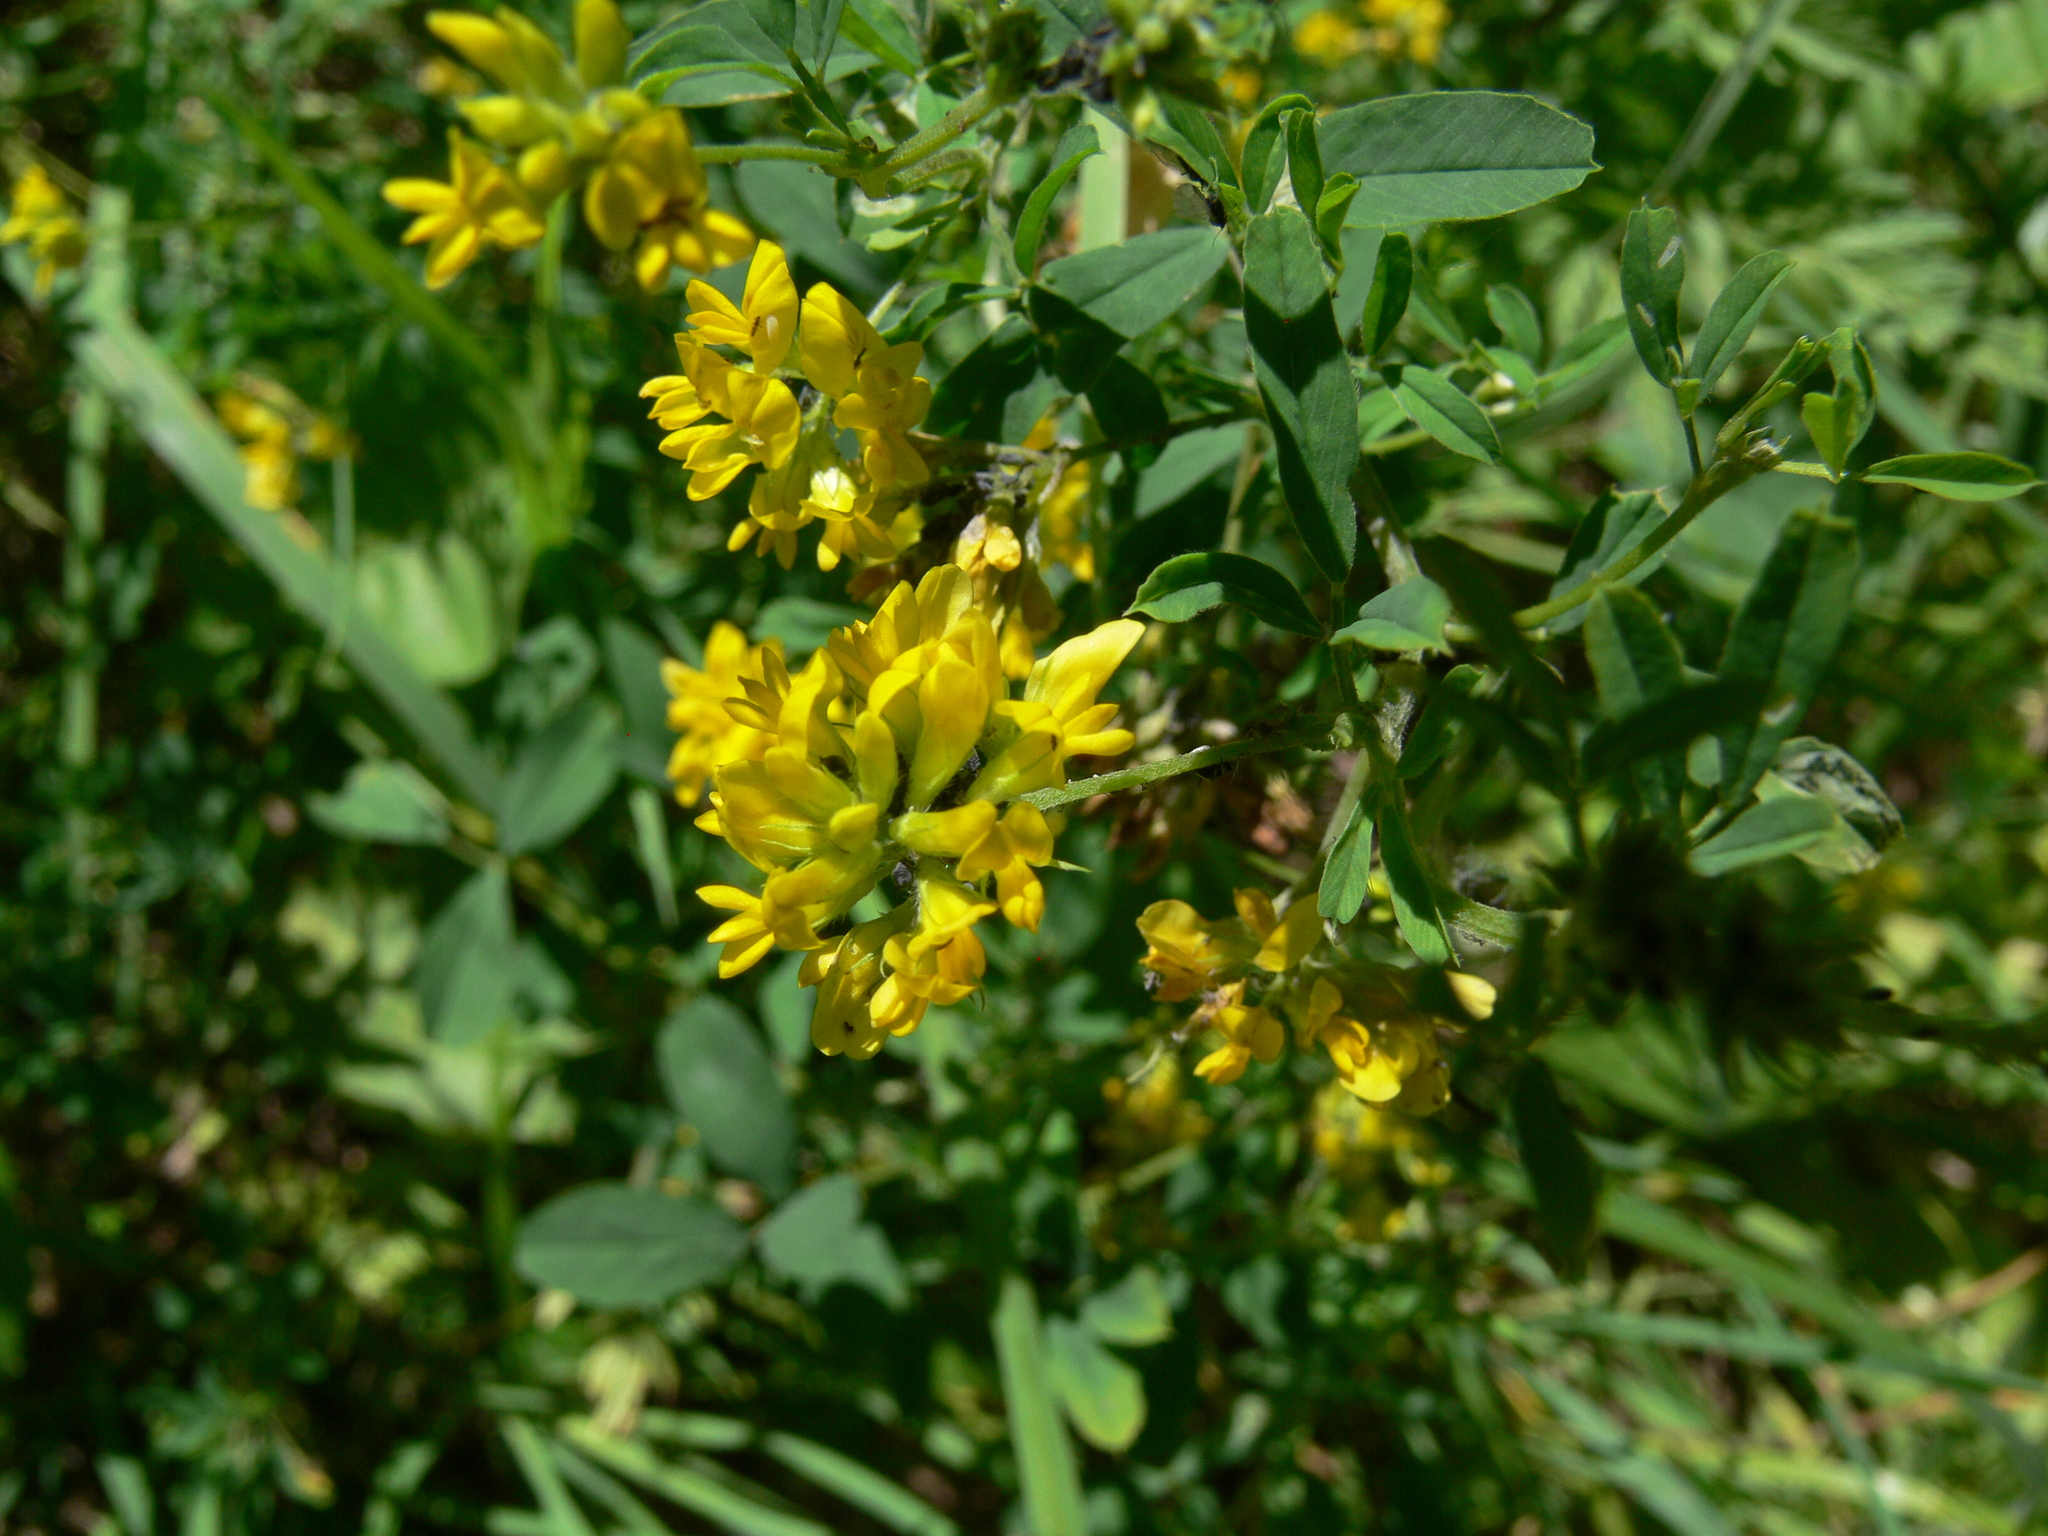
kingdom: Plantae
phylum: Tracheophyta
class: Magnoliopsida
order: Fabales
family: Fabaceae
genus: Medicago
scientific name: Medicago falcata
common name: Sickle medick
